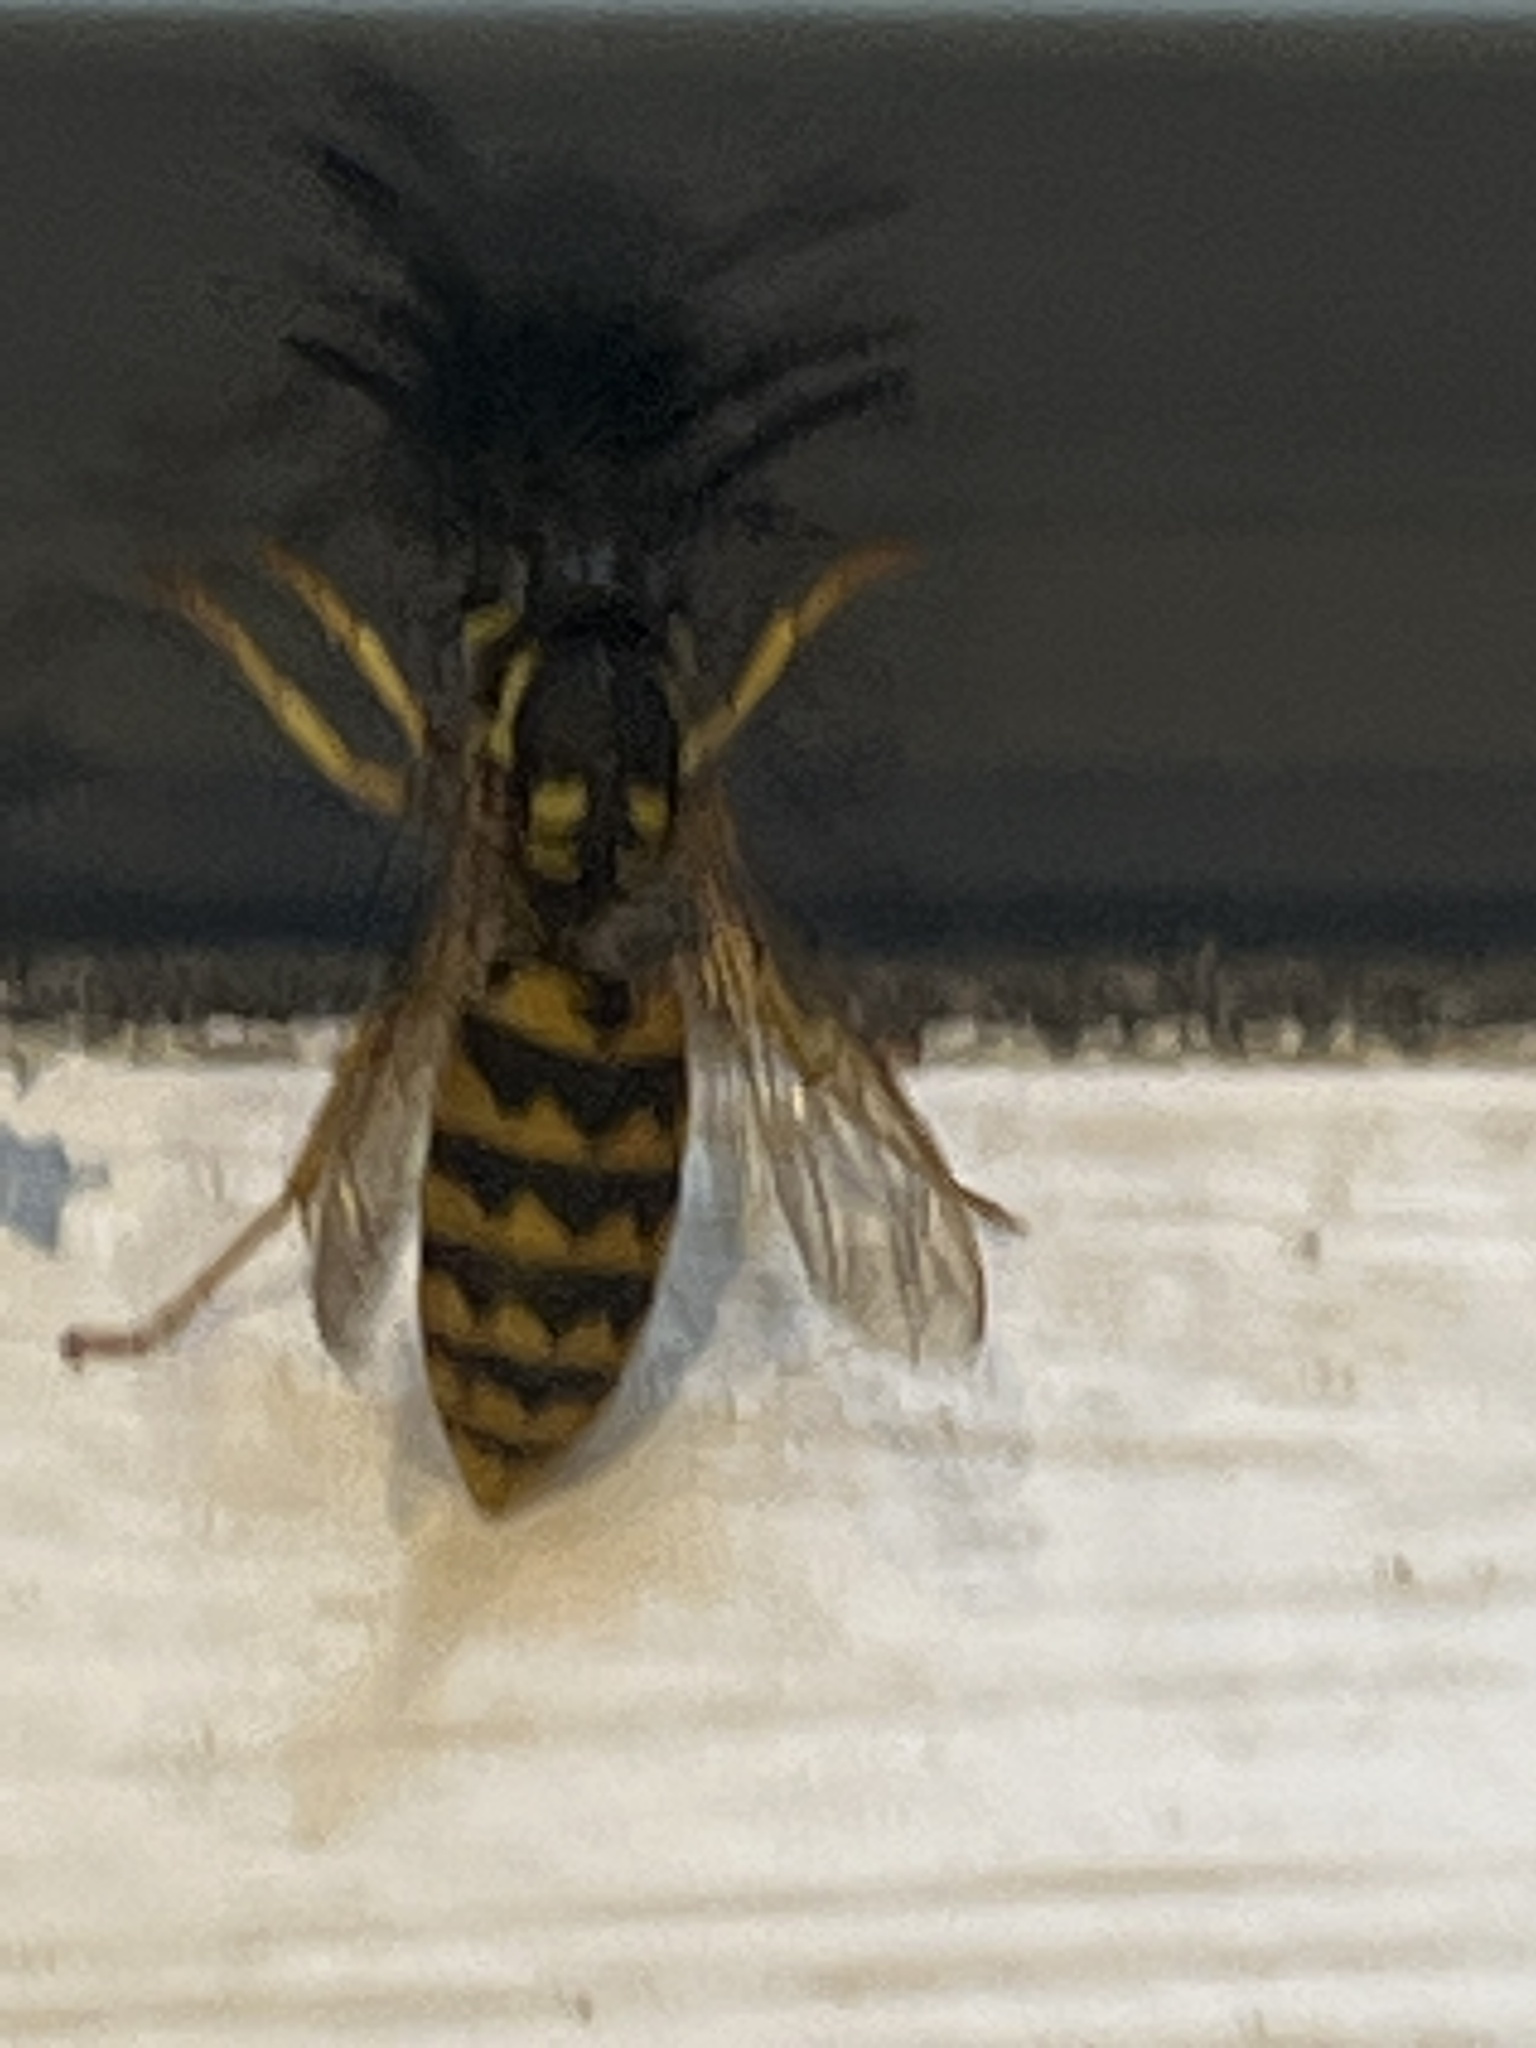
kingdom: Animalia
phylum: Arthropoda
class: Insecta
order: Hymenoptera
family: Vespidae
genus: Vespula
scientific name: Vespula germanica
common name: German wasp
